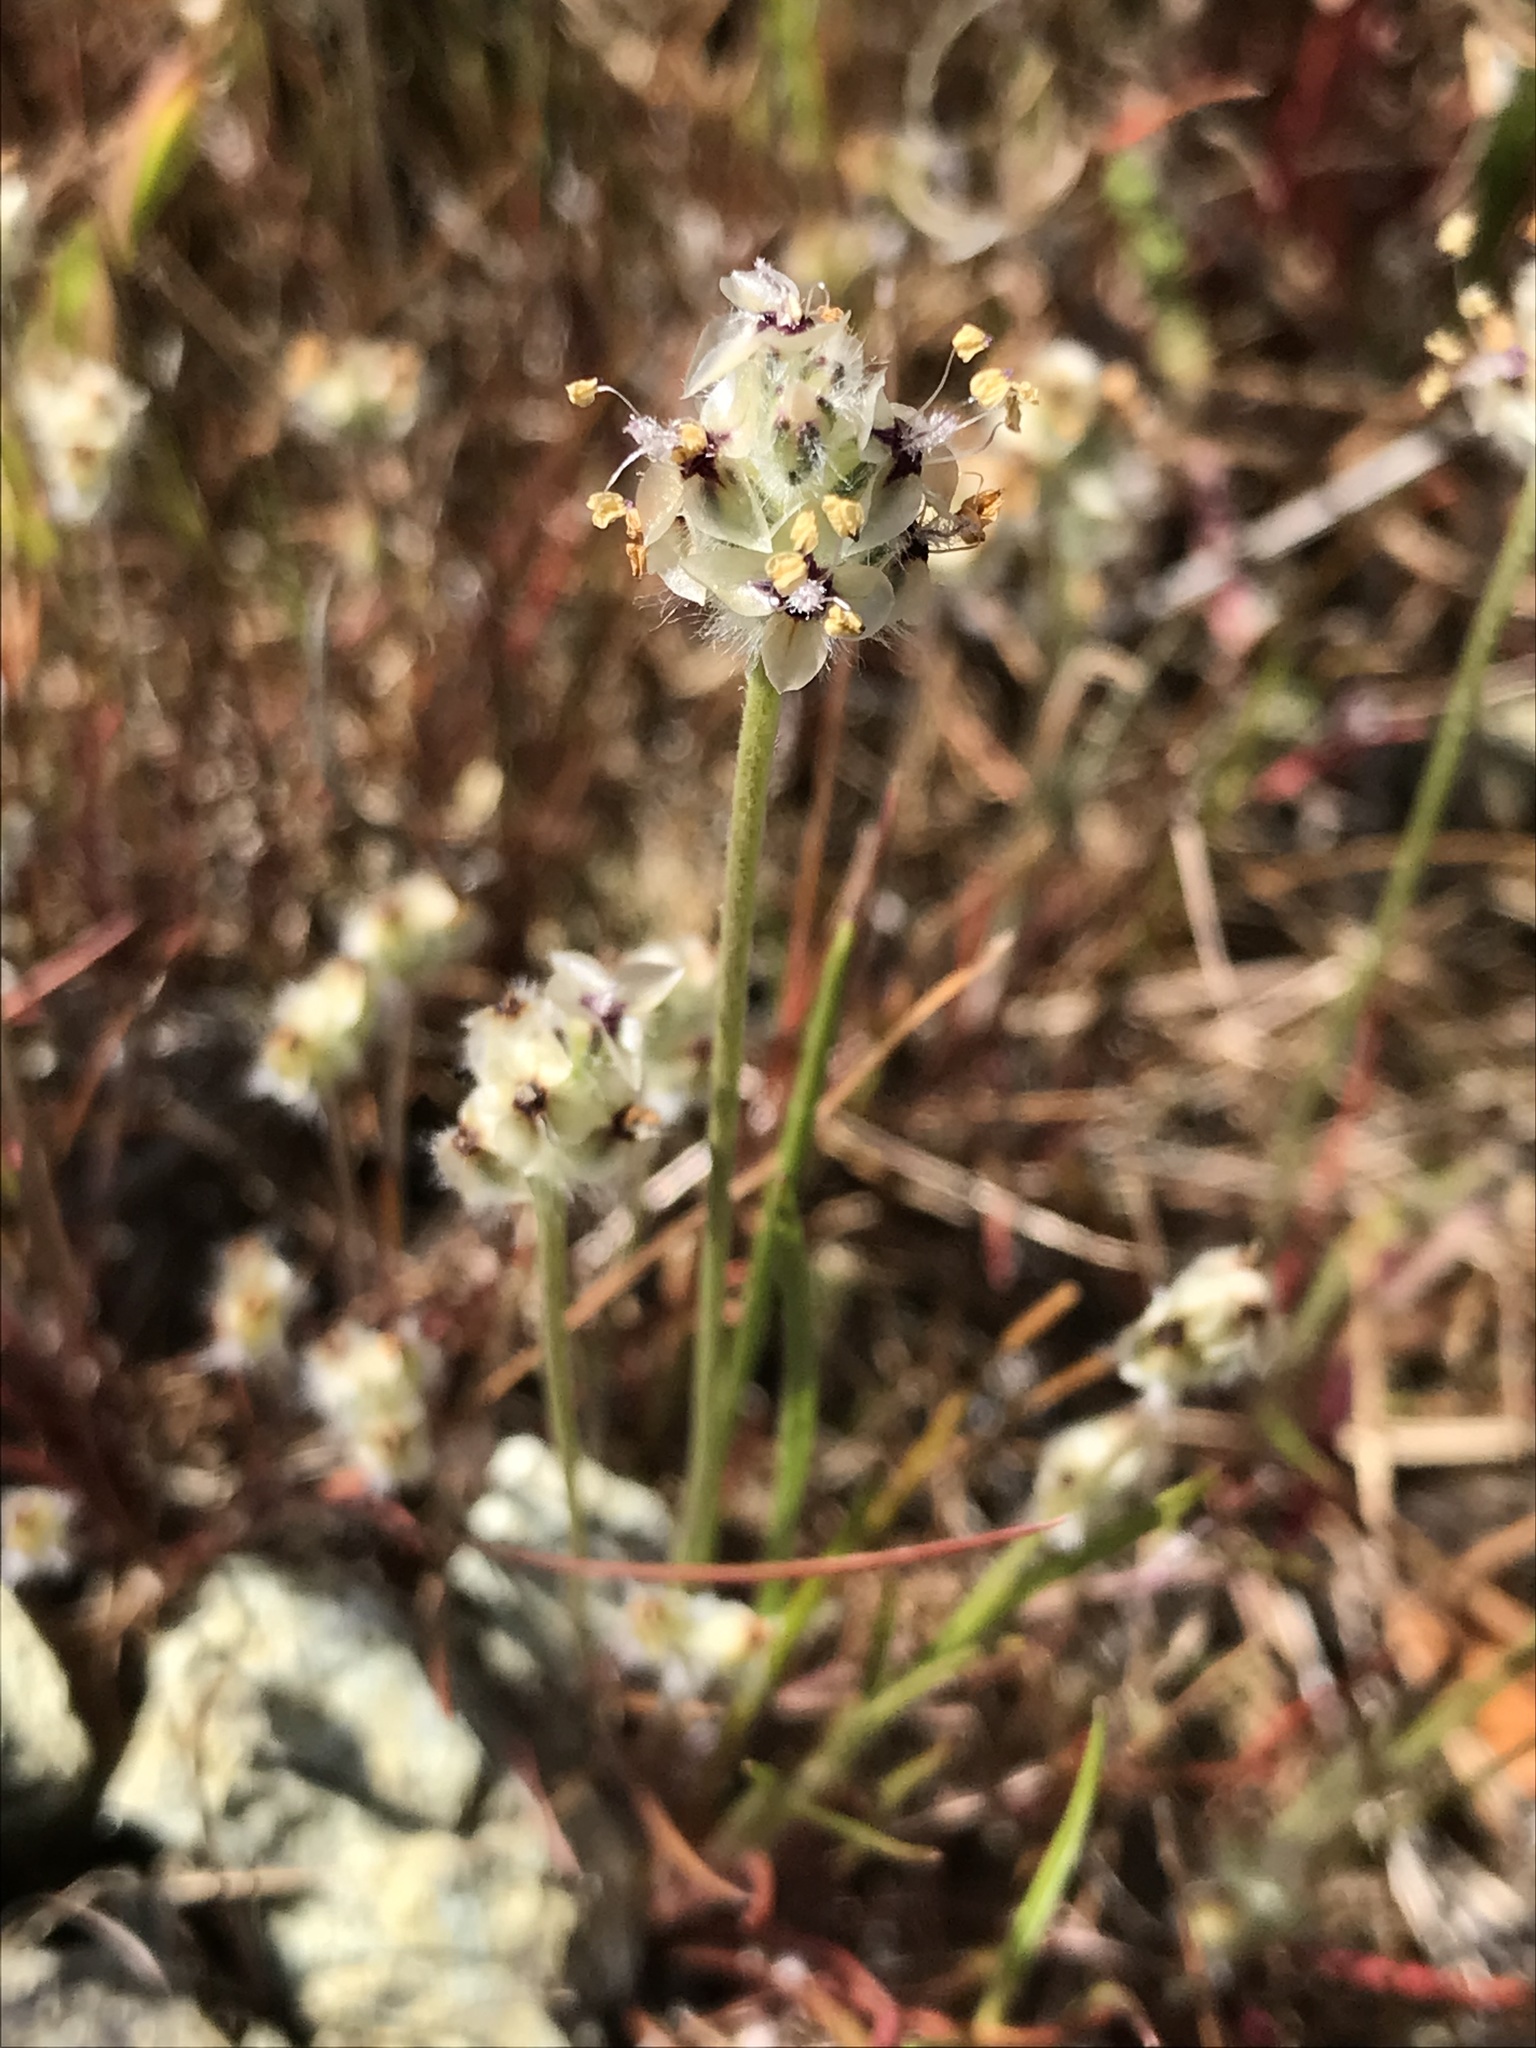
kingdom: Plantae
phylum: Tracheophyta
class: Magnoliopsida
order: Lamiales
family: Plantaginaceae
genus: Plantago
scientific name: Plantago erecta
